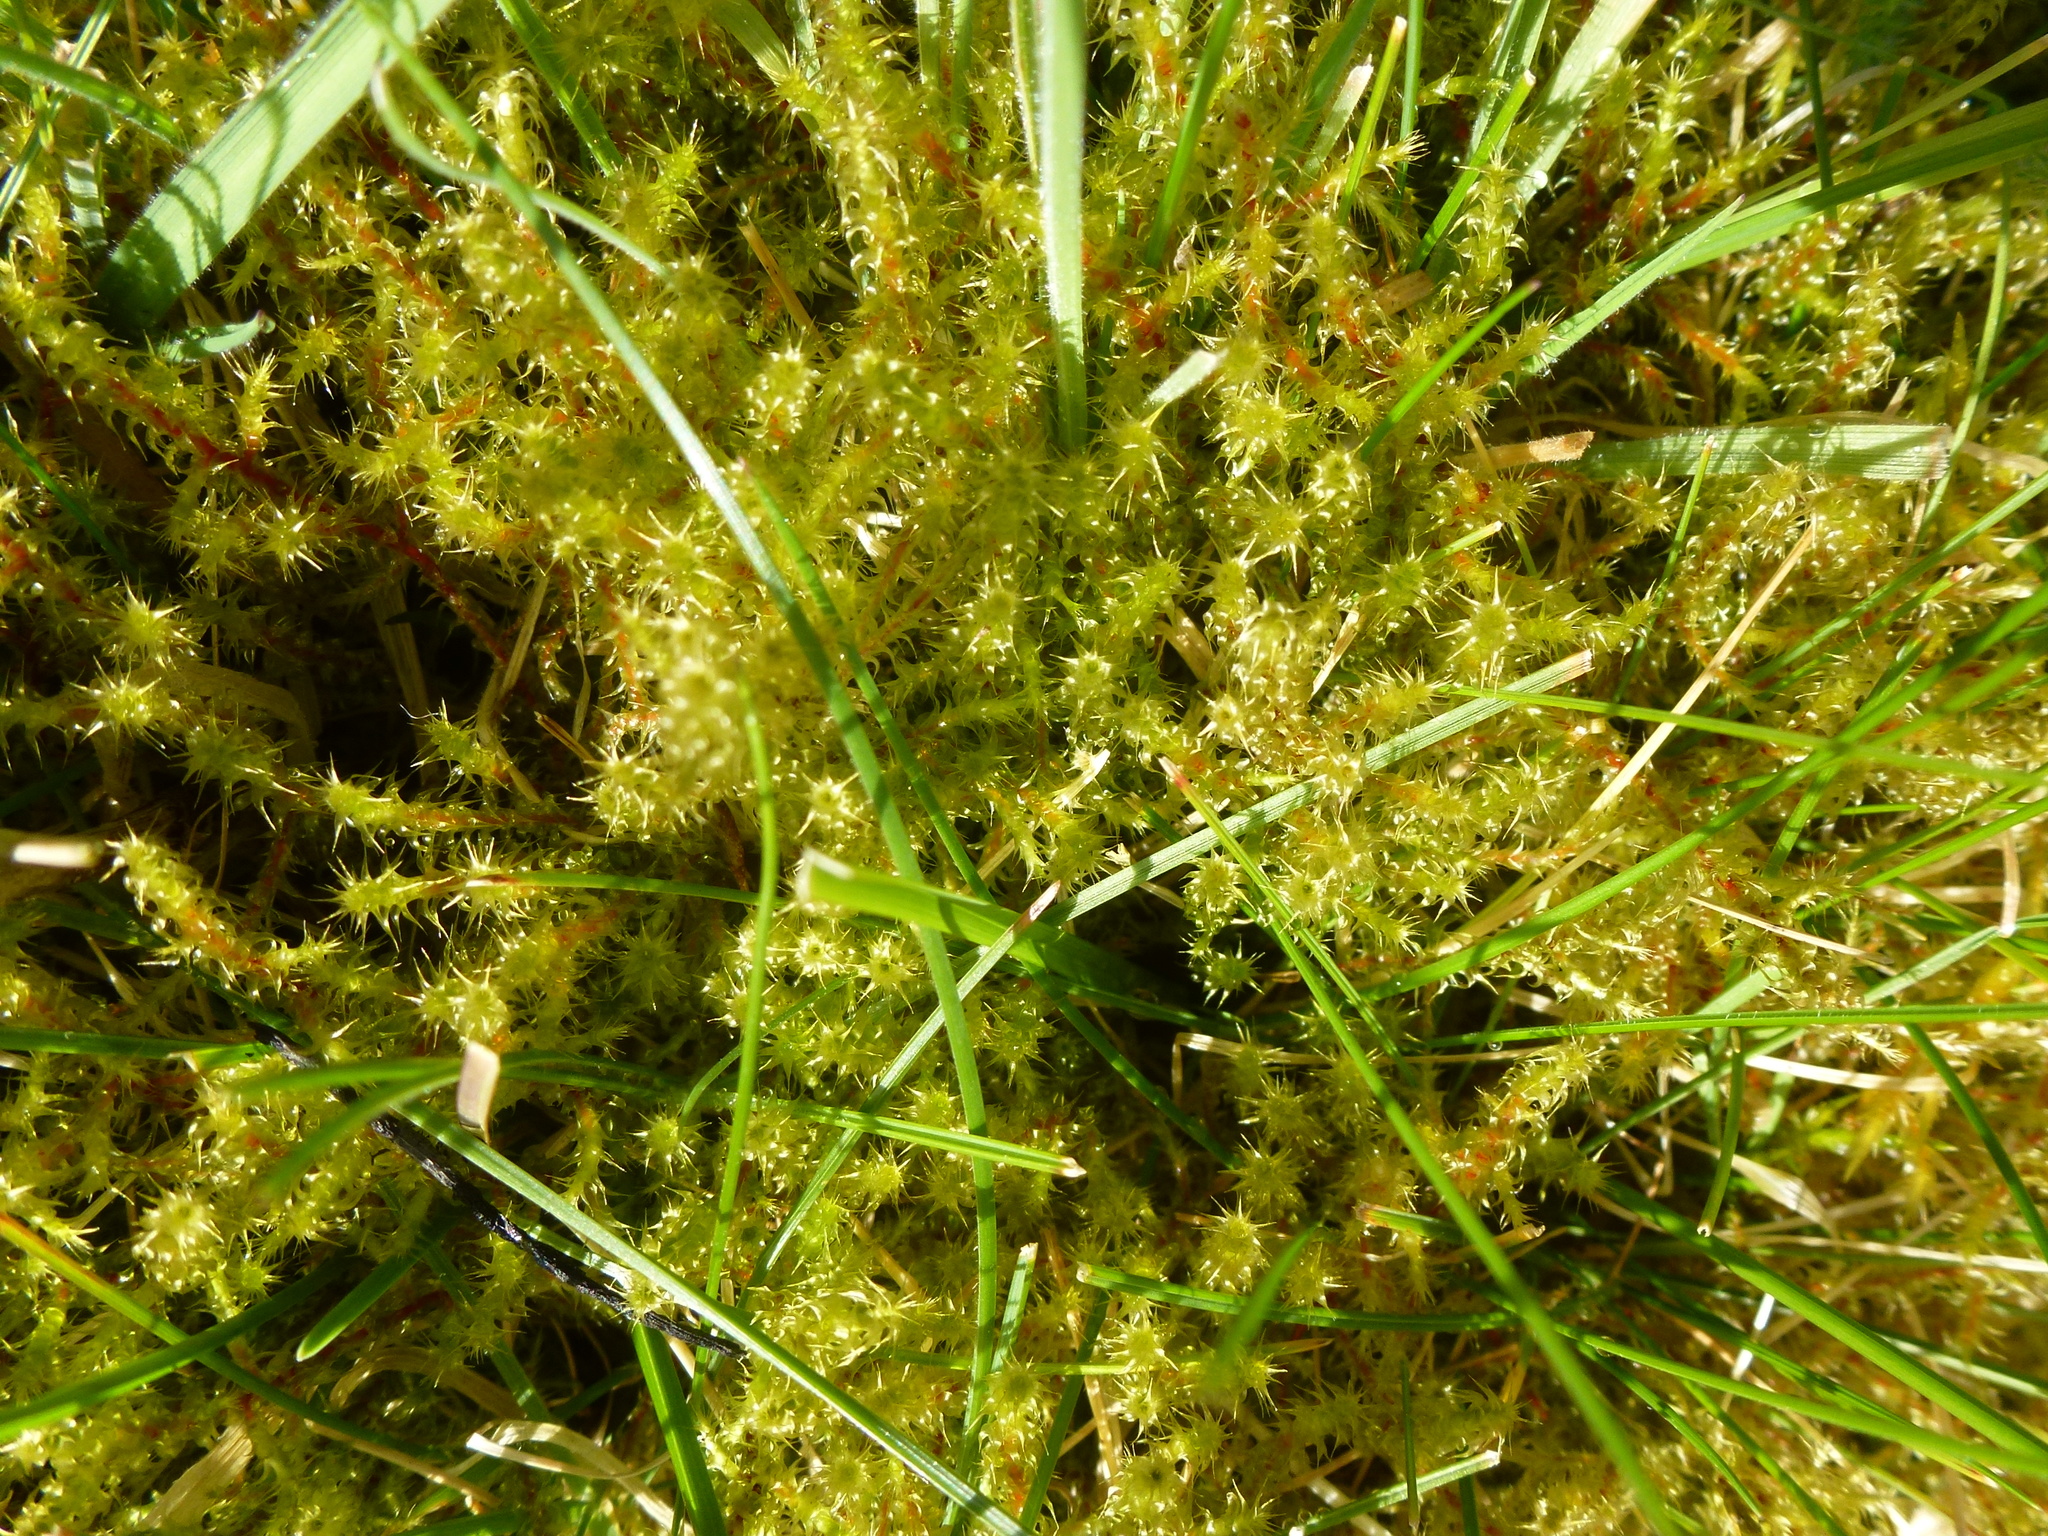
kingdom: Plantae
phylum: Bryophyta
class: Bryopsida
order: Hypnales
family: Hylocomiaceae
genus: Rhytidiadelphus
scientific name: Rhytidiadelphus squarrosus
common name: Springy turf-moss
